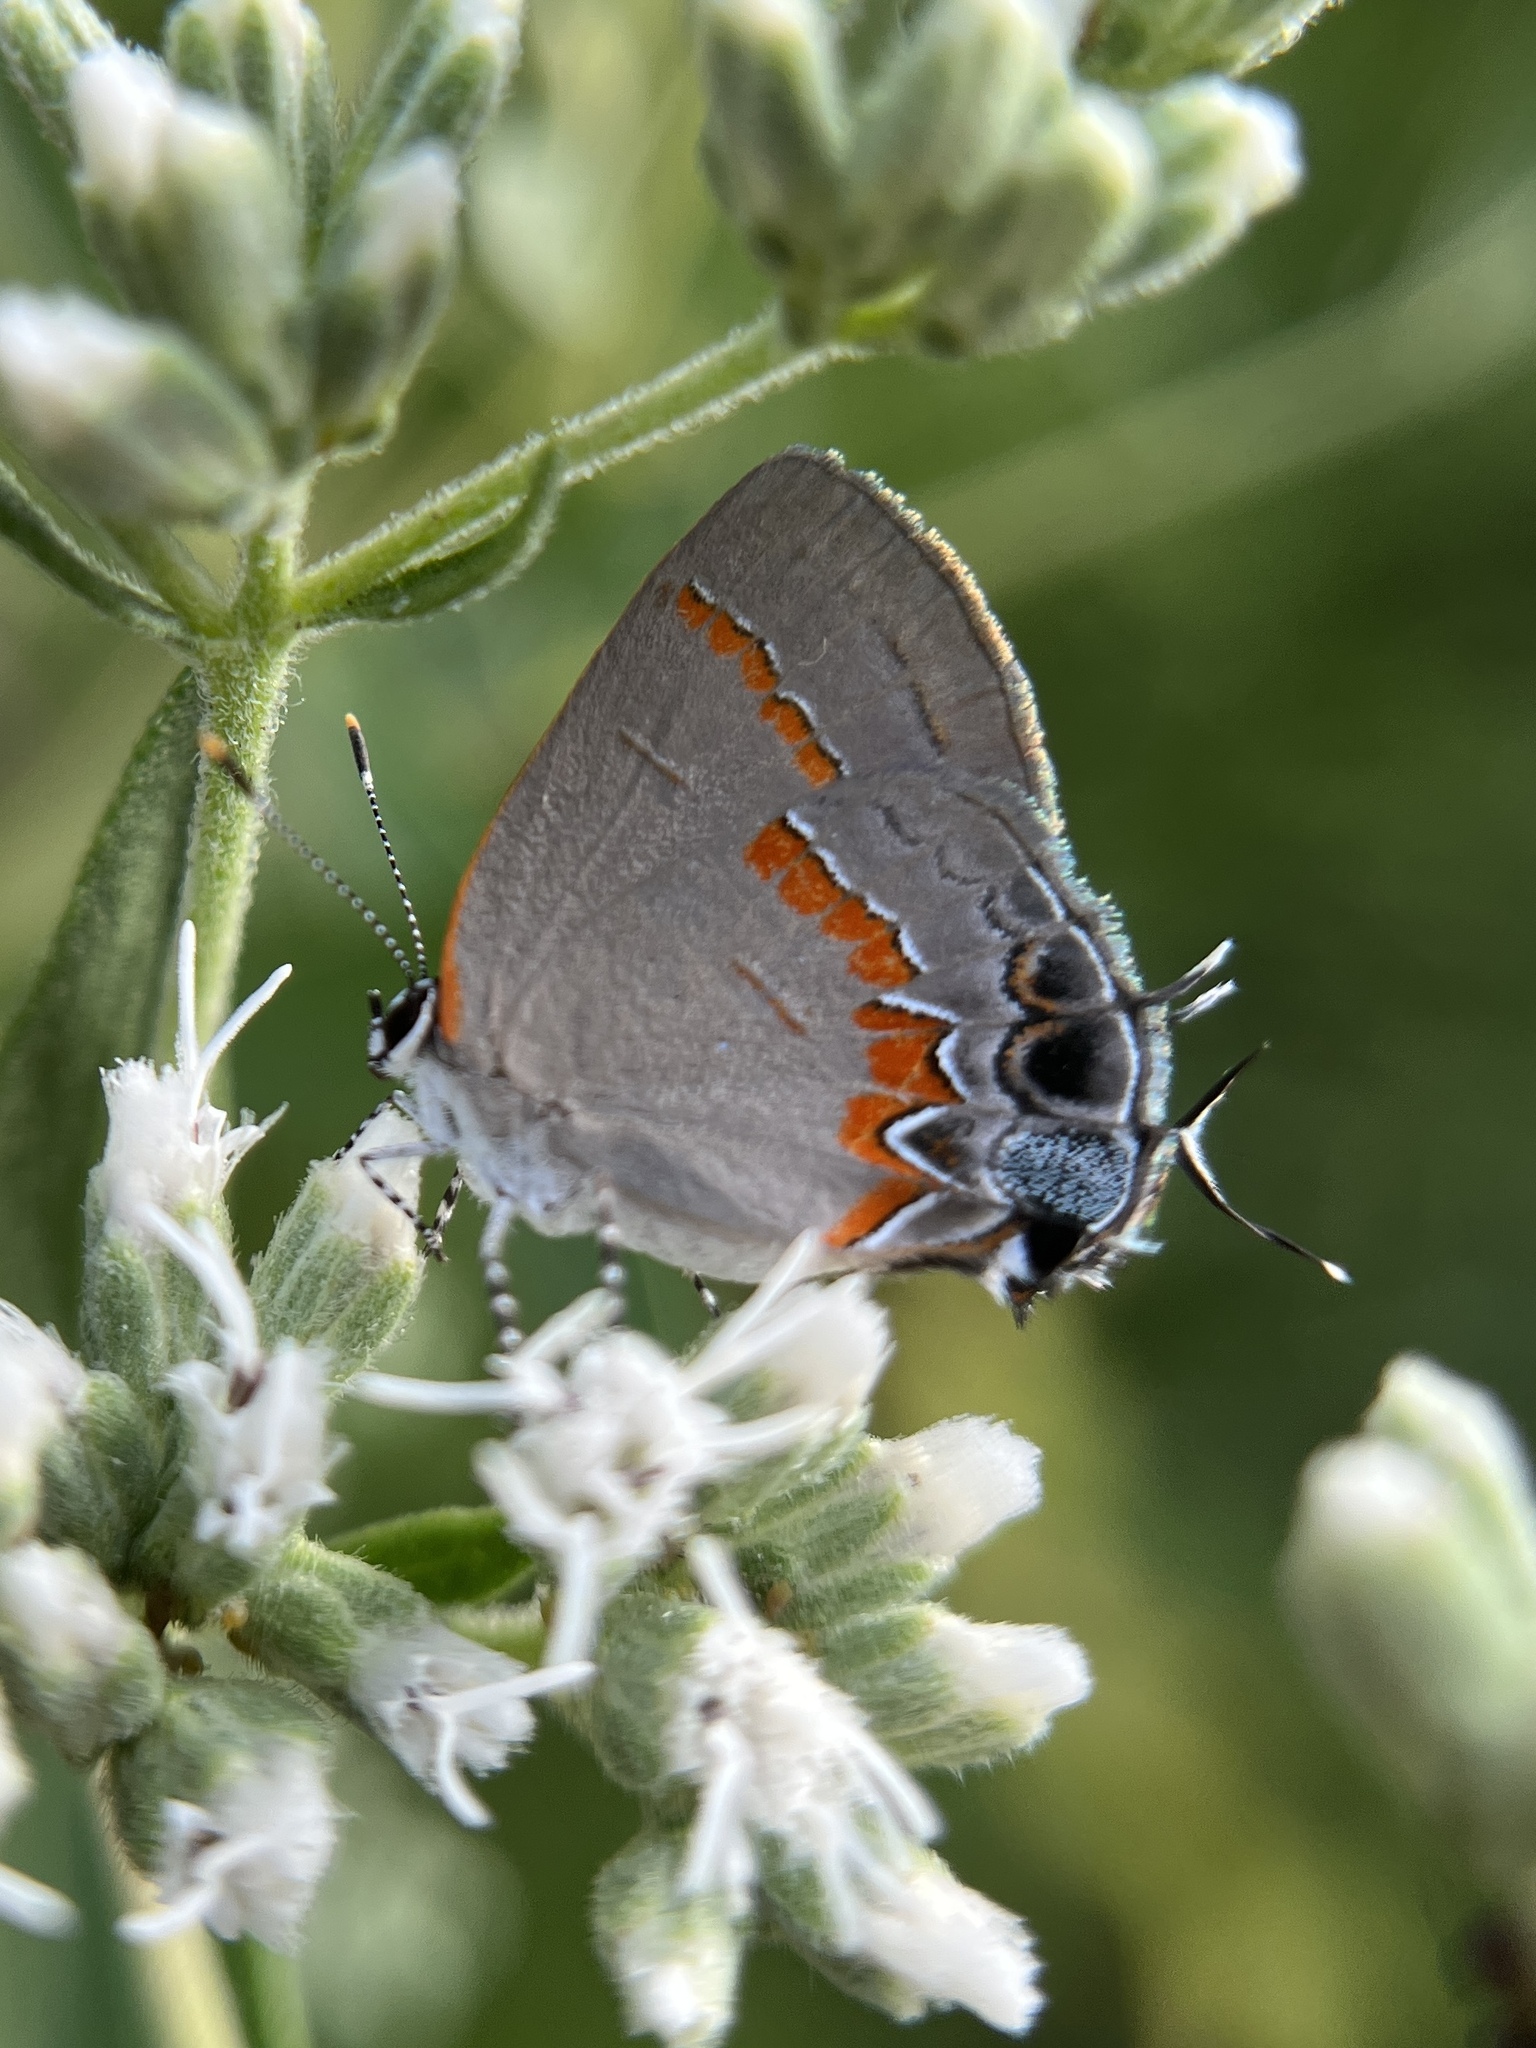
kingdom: Animalia
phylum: Arthropoda
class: Insecta
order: Lepidoptera
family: Lycaenidae
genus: Calycopis
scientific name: Calycopis cecrops
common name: Red-banded hairstreak
